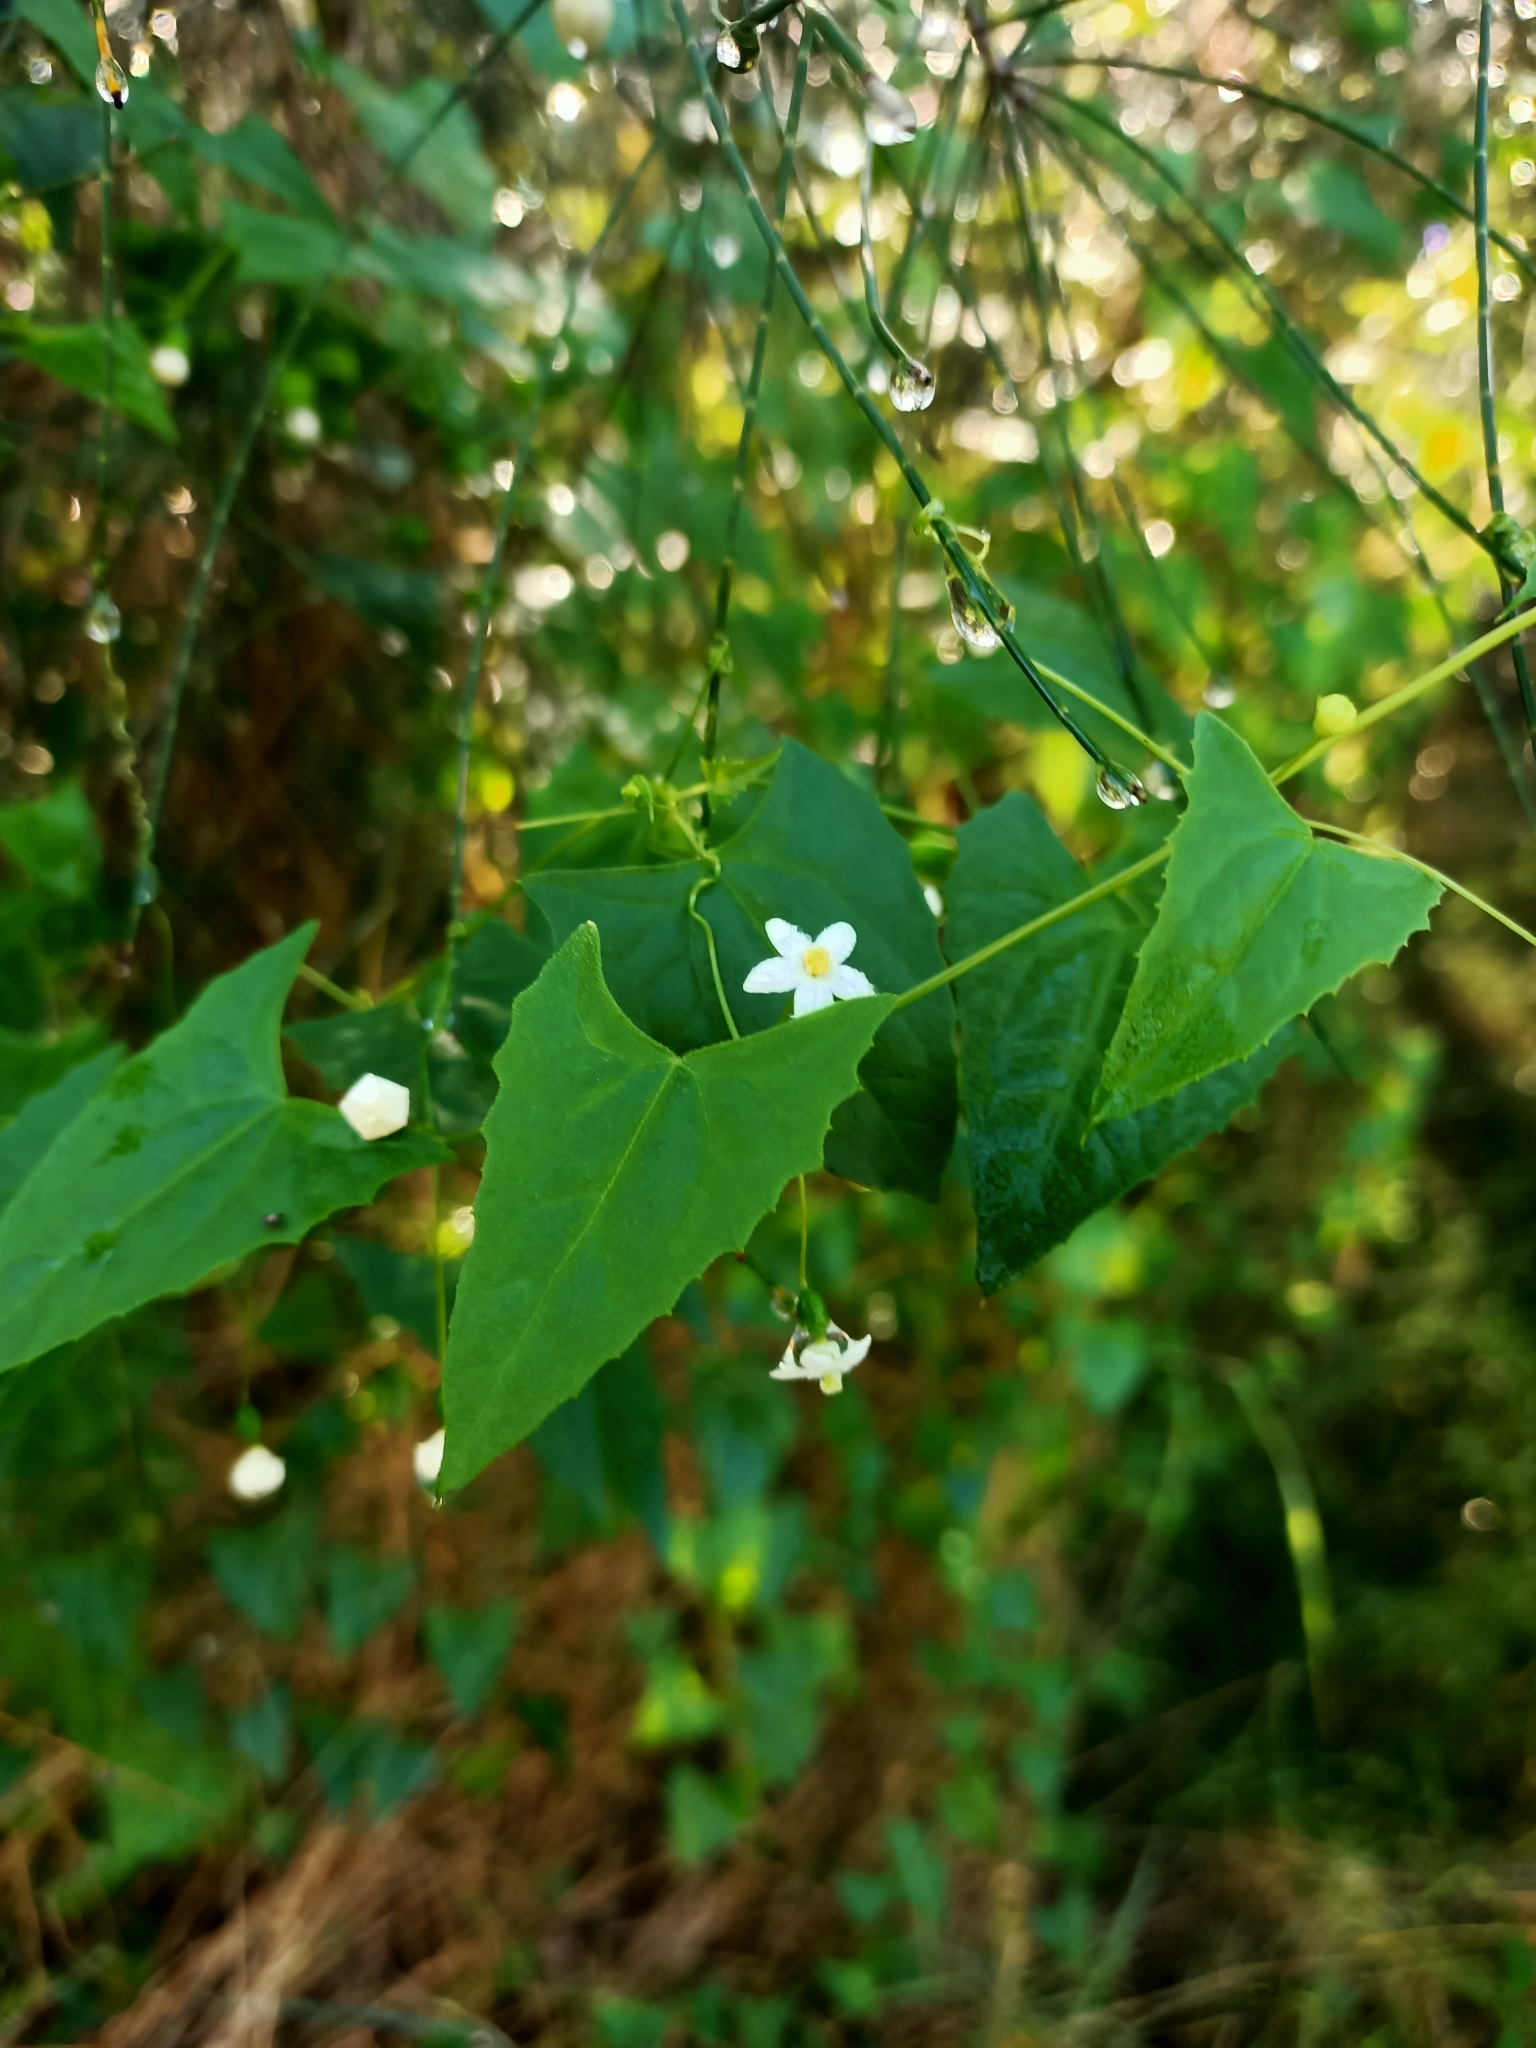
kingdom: Plantae
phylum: Tracheophyta
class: Magnoliopsida
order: Cucurbitales
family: Cucurbitaceae
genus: Zehneria
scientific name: Zehneria cunninghamii
